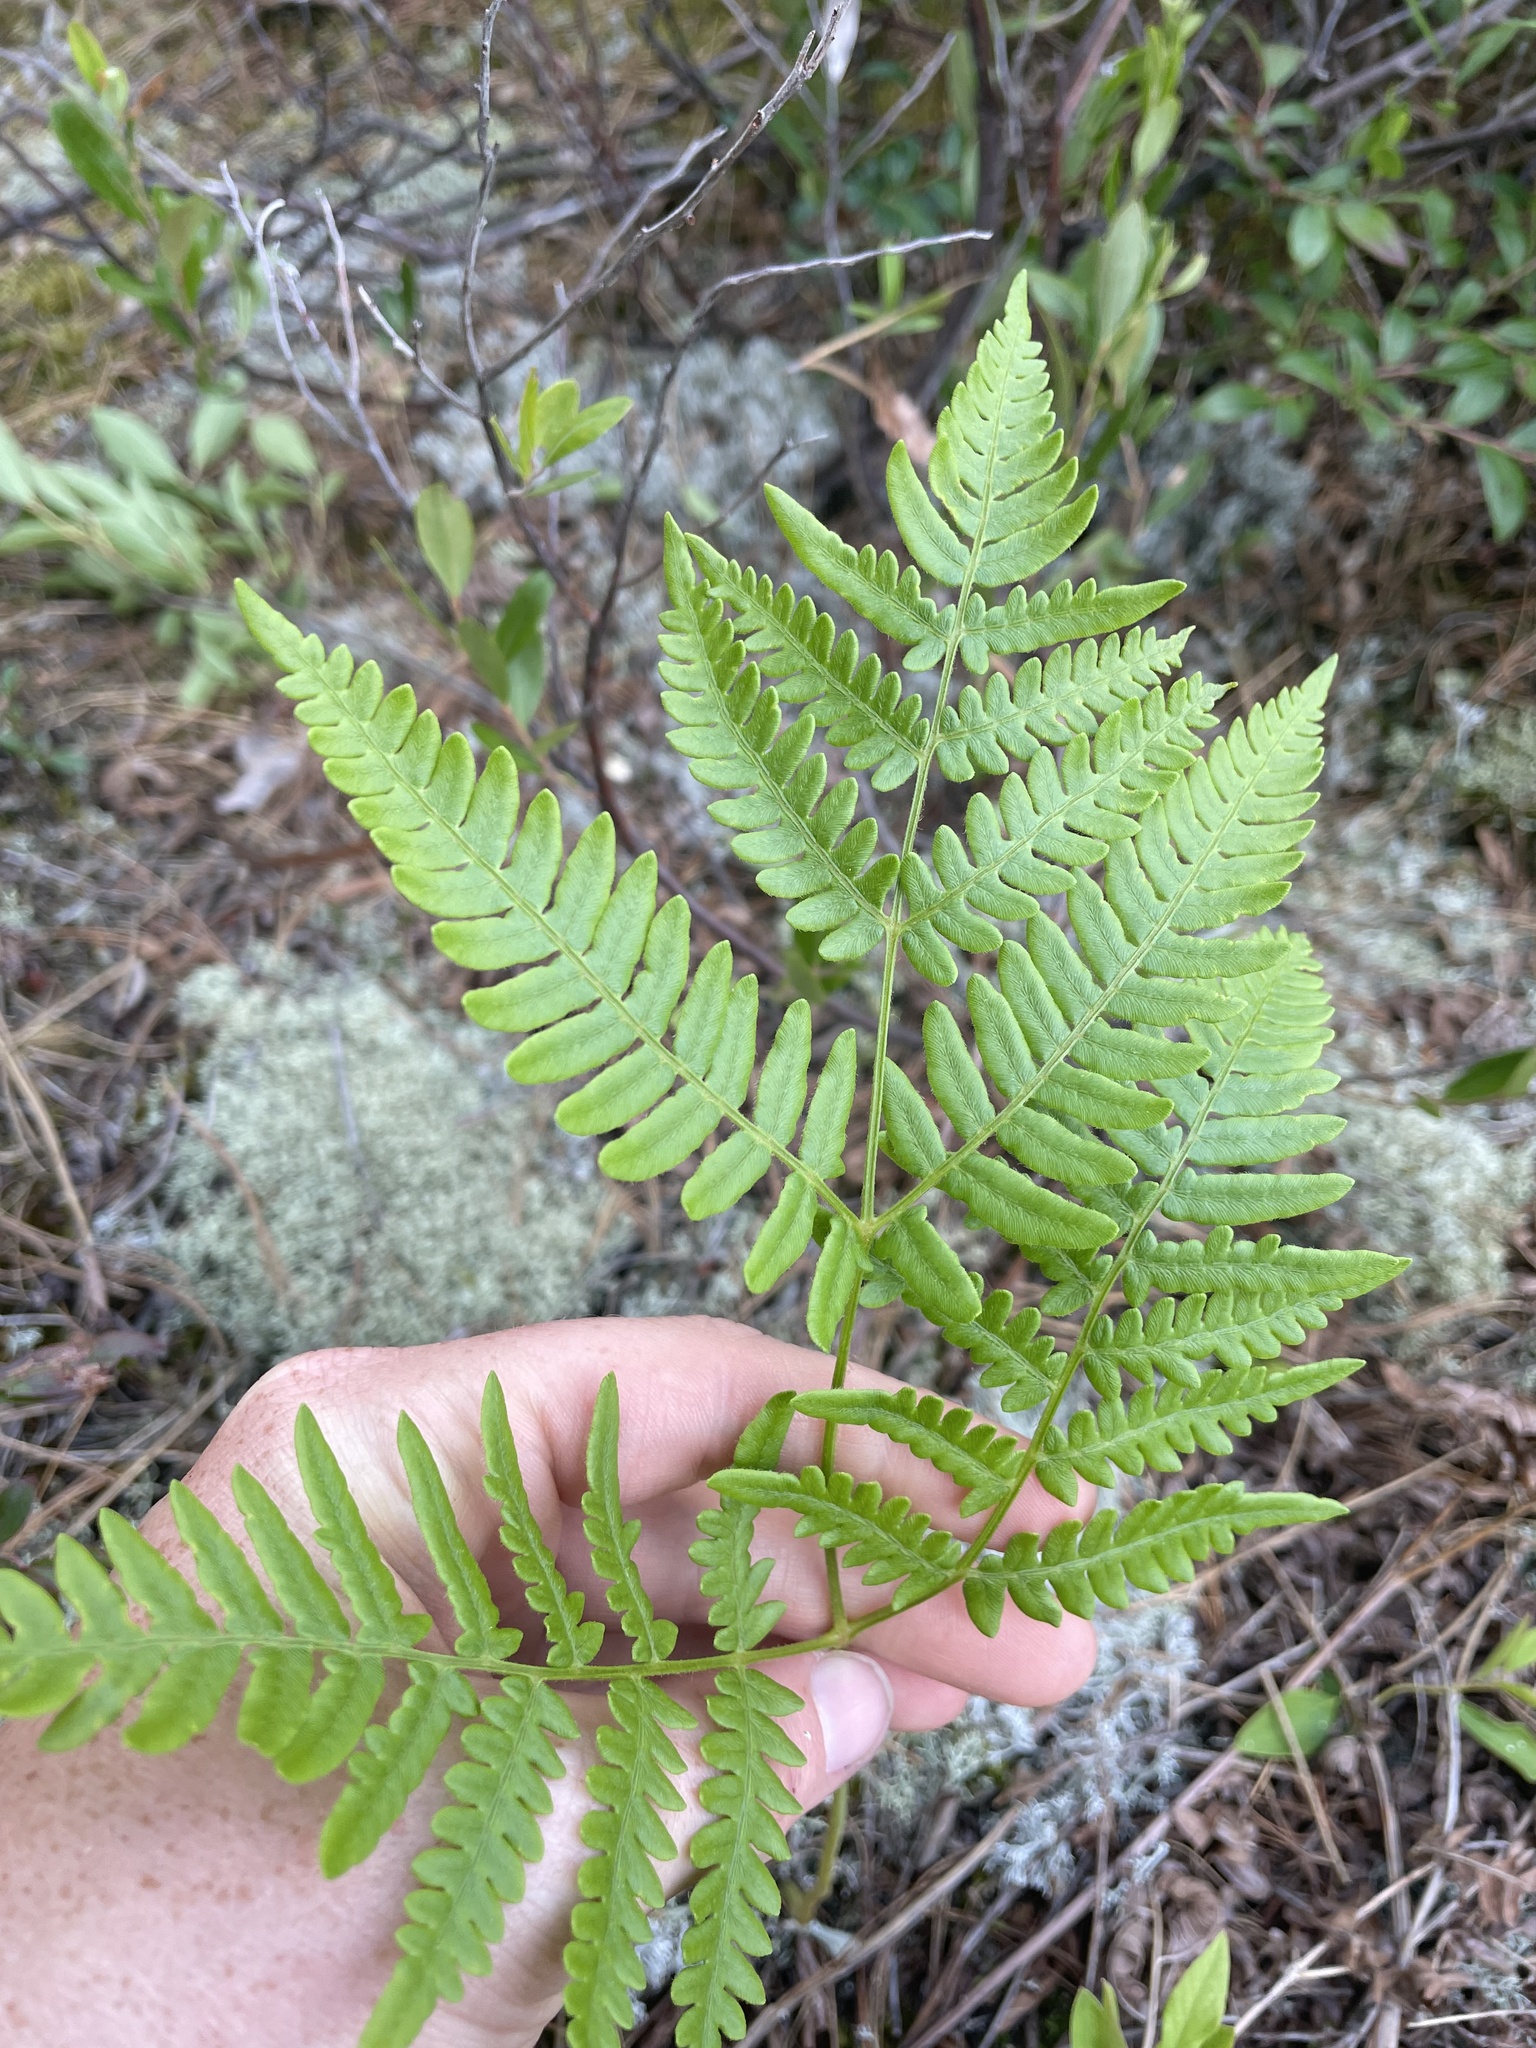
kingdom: Plantae
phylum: Tracheophyta
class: Polypodiopsida
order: Polypodiales
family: Dennstaedtiaceae
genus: Pteridium
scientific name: Pteridium aquilinum
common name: Bracken
